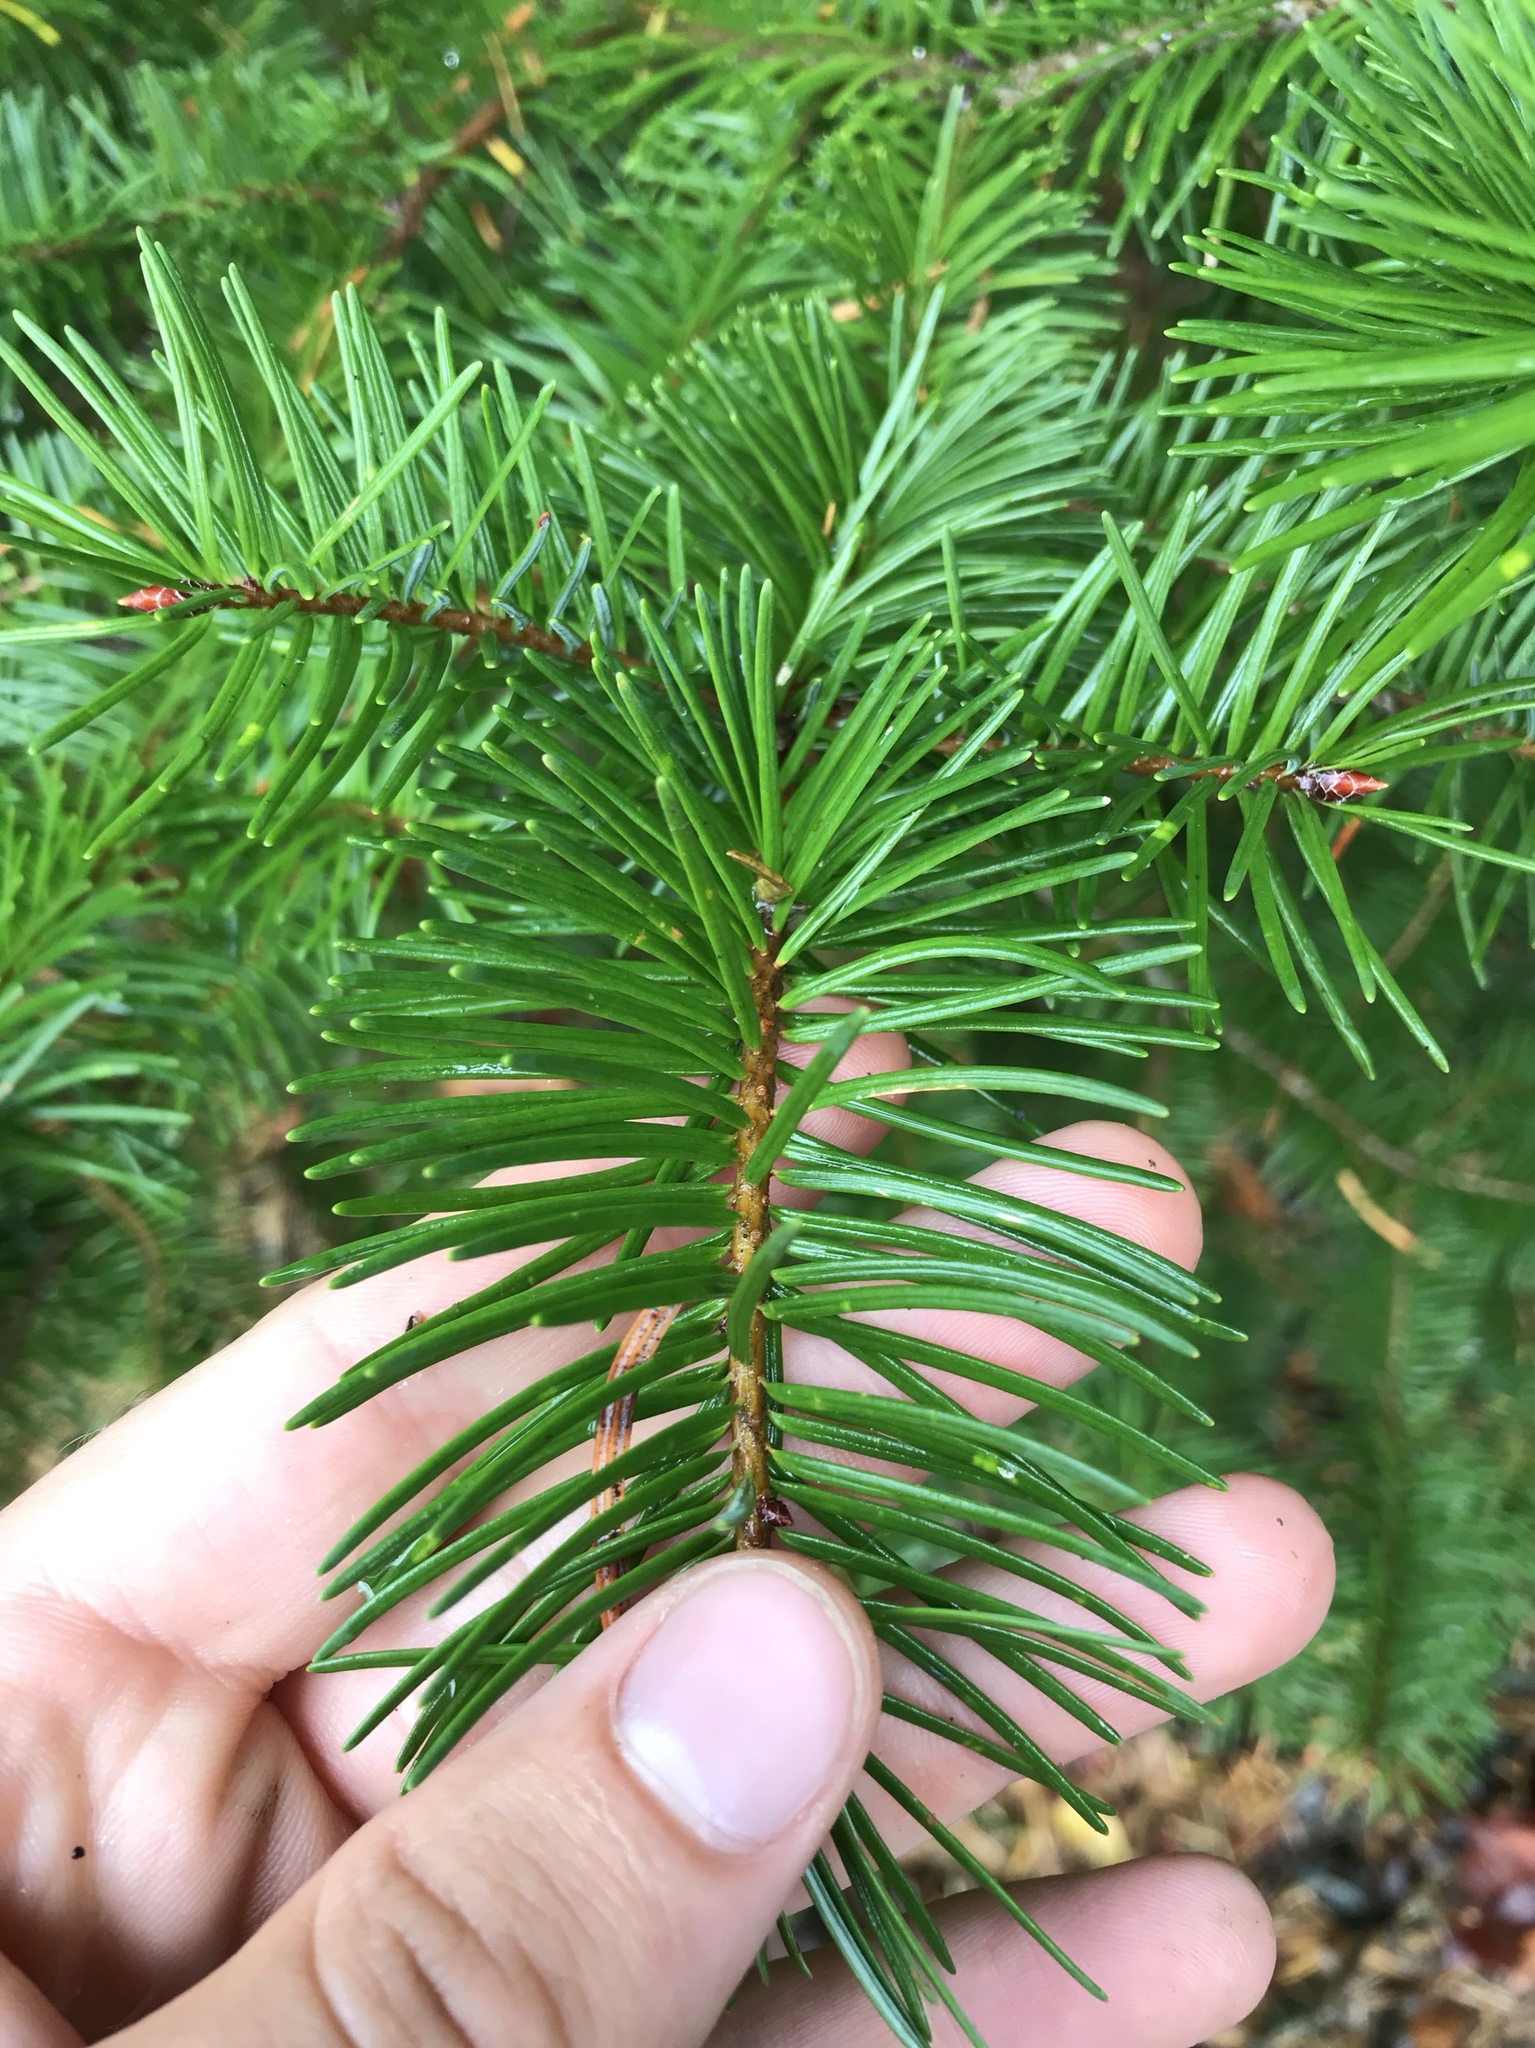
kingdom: Plantae
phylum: Tracheophyta
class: Pinopsida
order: Pinales
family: Pinaceae
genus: Abies
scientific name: Abies grandis
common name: Giant fir
